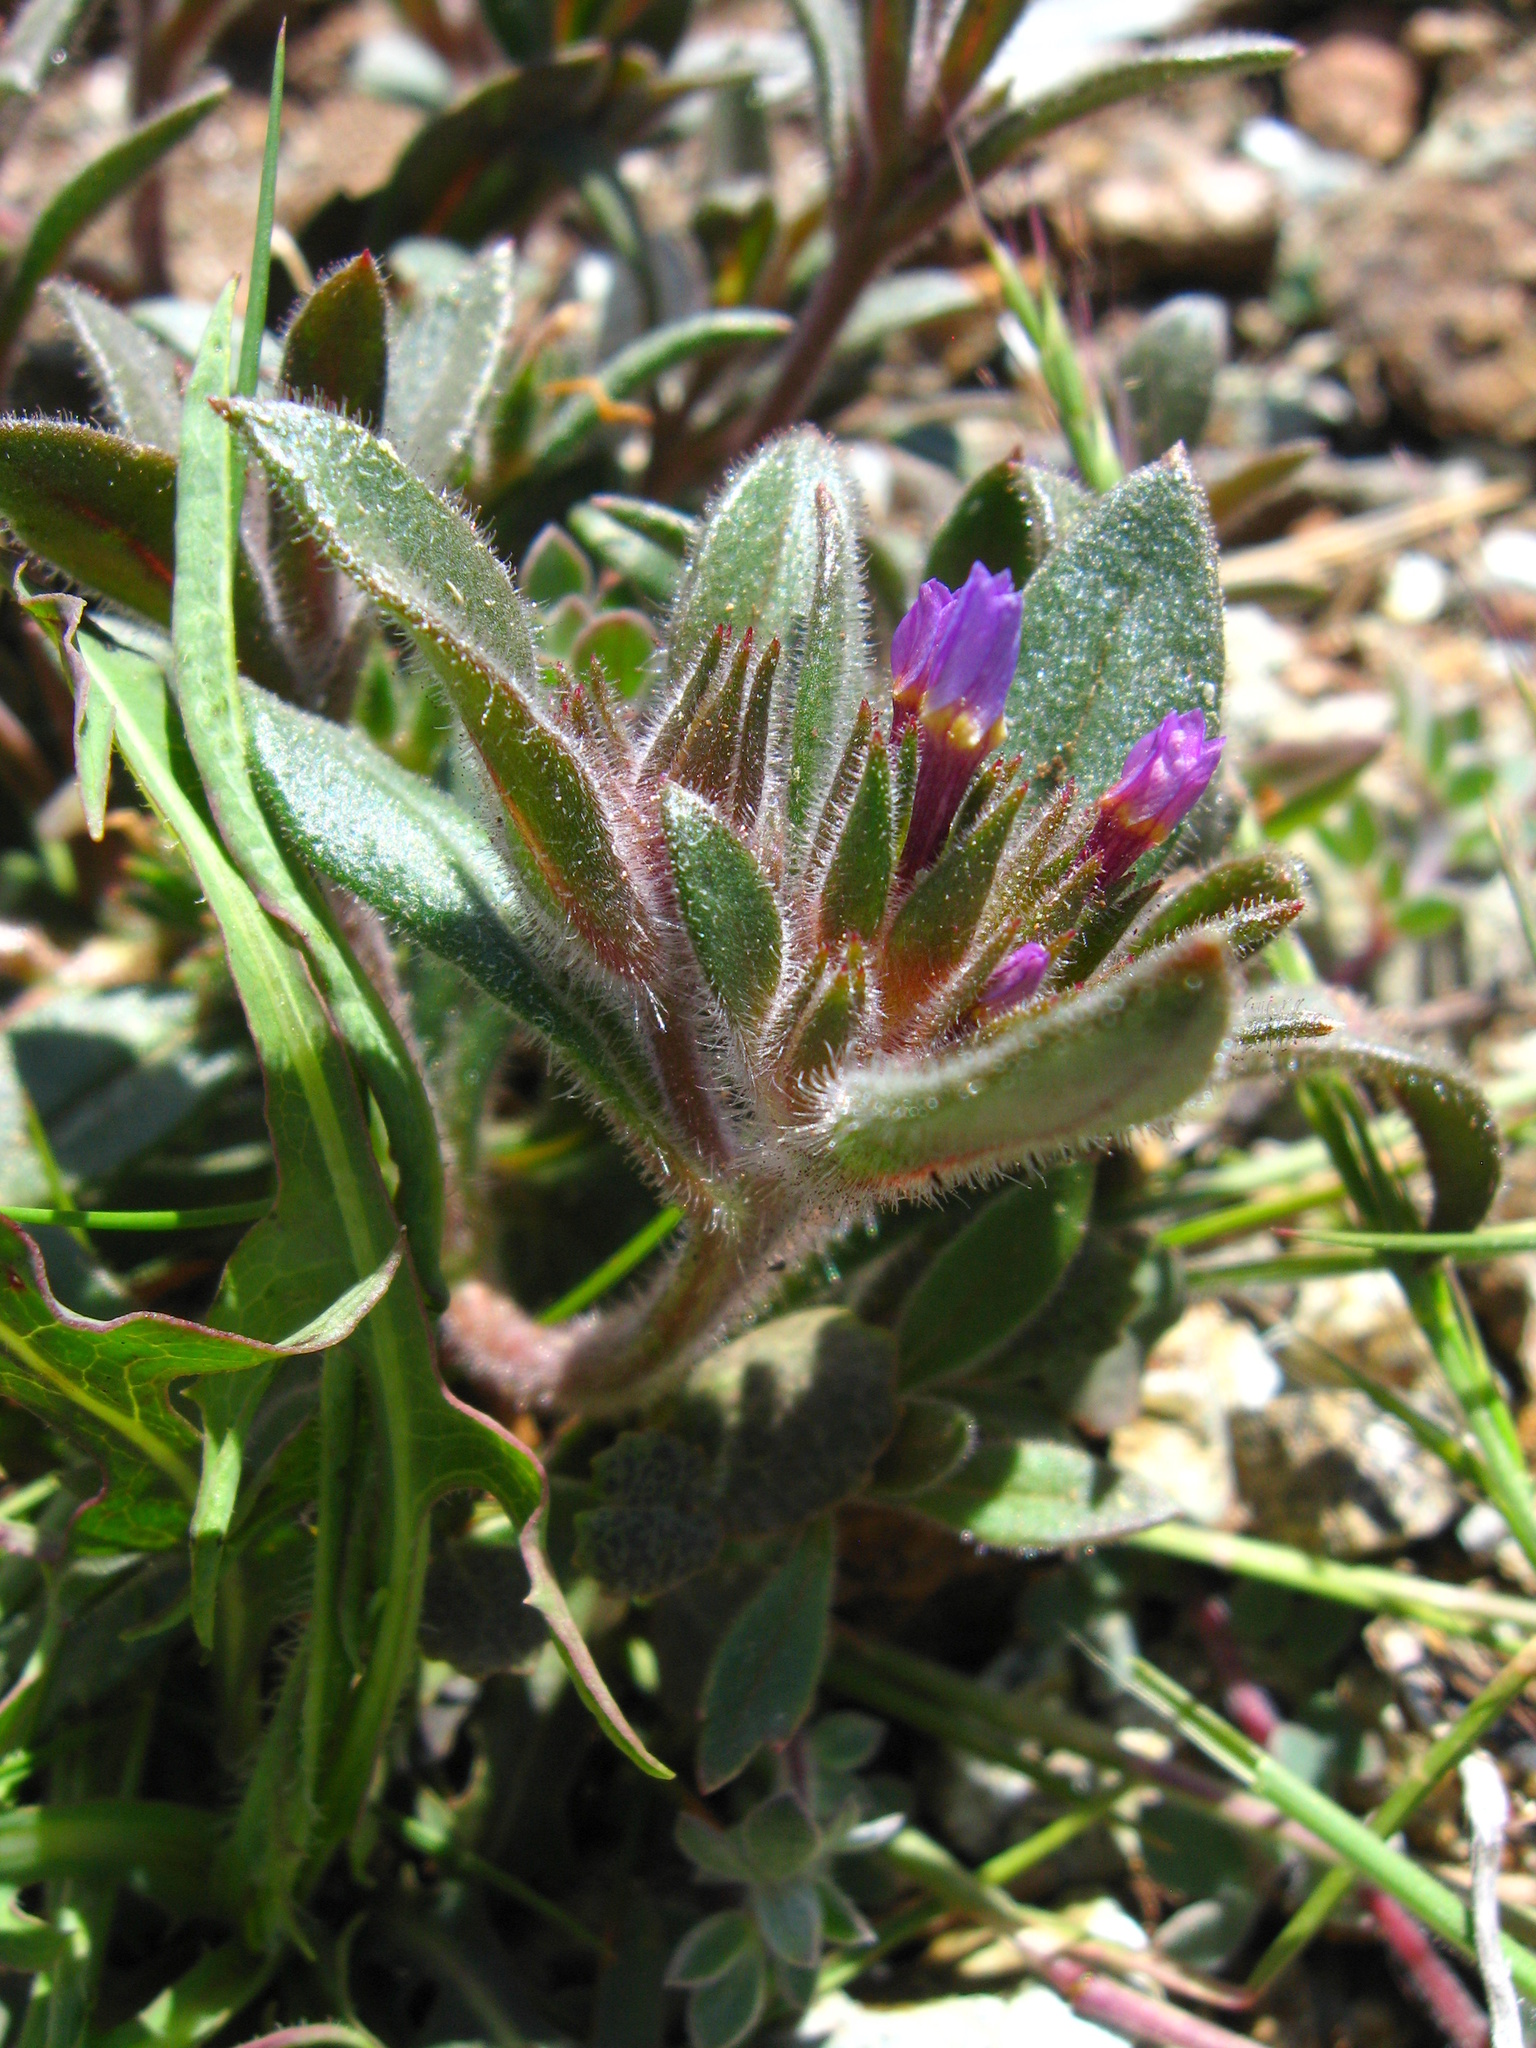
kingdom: Plantae
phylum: Tracheophyta
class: Magnoliopsida
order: Ericales
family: Polemoniaceae
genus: Collomia
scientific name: Collomia diversifolia
